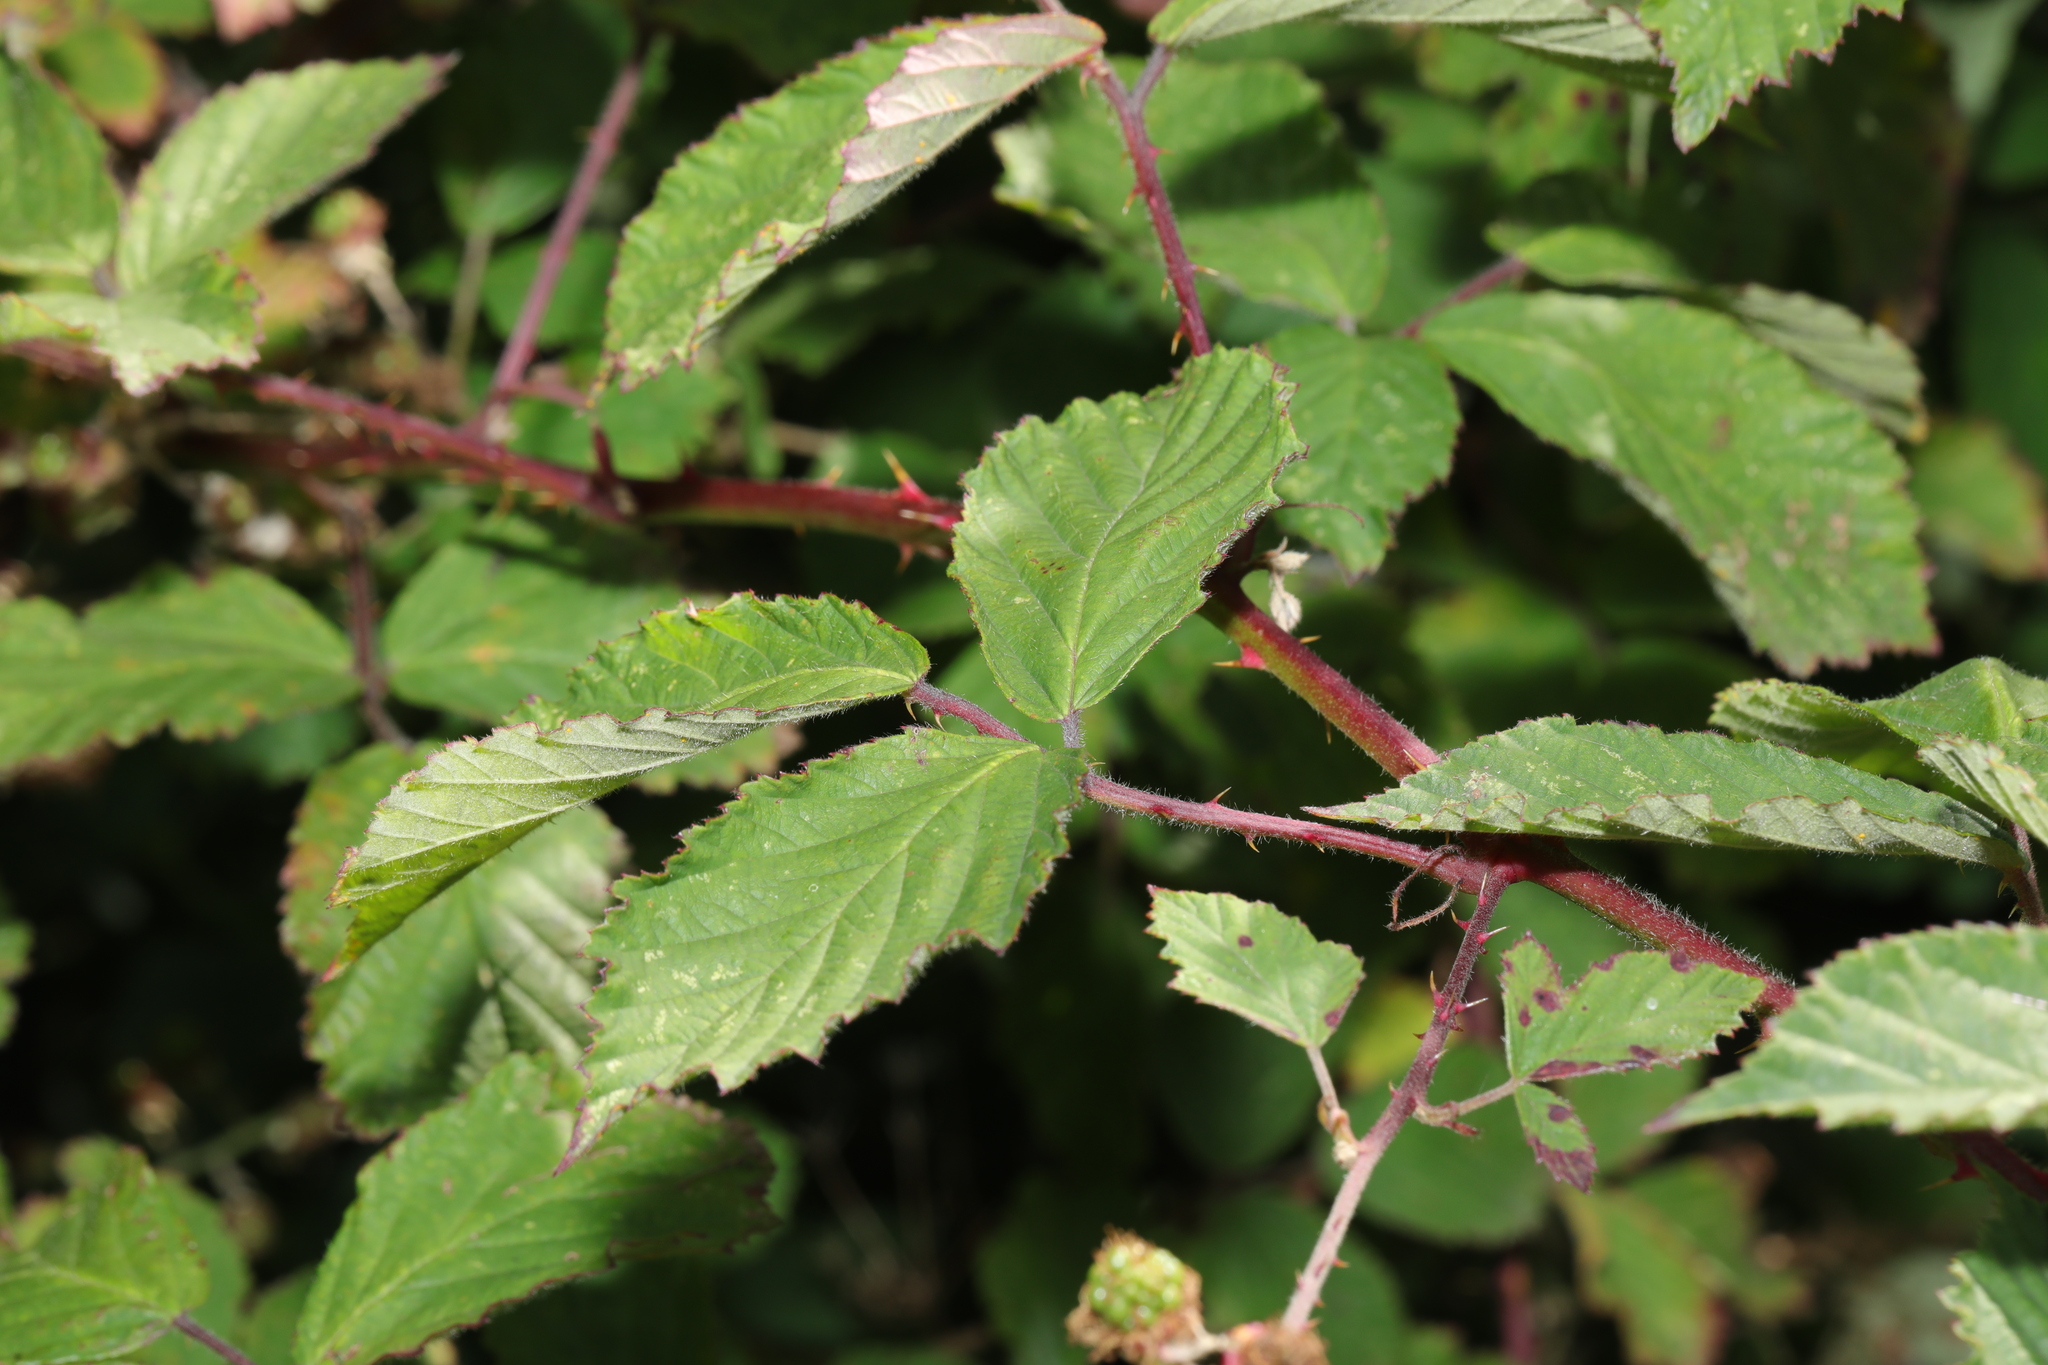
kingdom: Plantae
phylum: Tracheophyta
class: Magnoliopsida
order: Rosales
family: Rosaceae
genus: Rubus
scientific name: Rubus vestitus
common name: European blackberry
